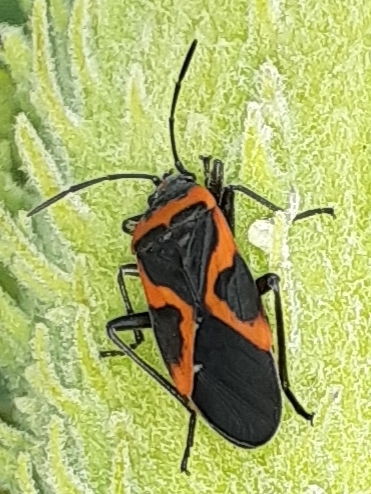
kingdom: Animalia
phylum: Arthropoda
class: Insecta
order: Hemiptera
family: Lygaeidae
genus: Lygaeus
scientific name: Lygaeus kalmii
